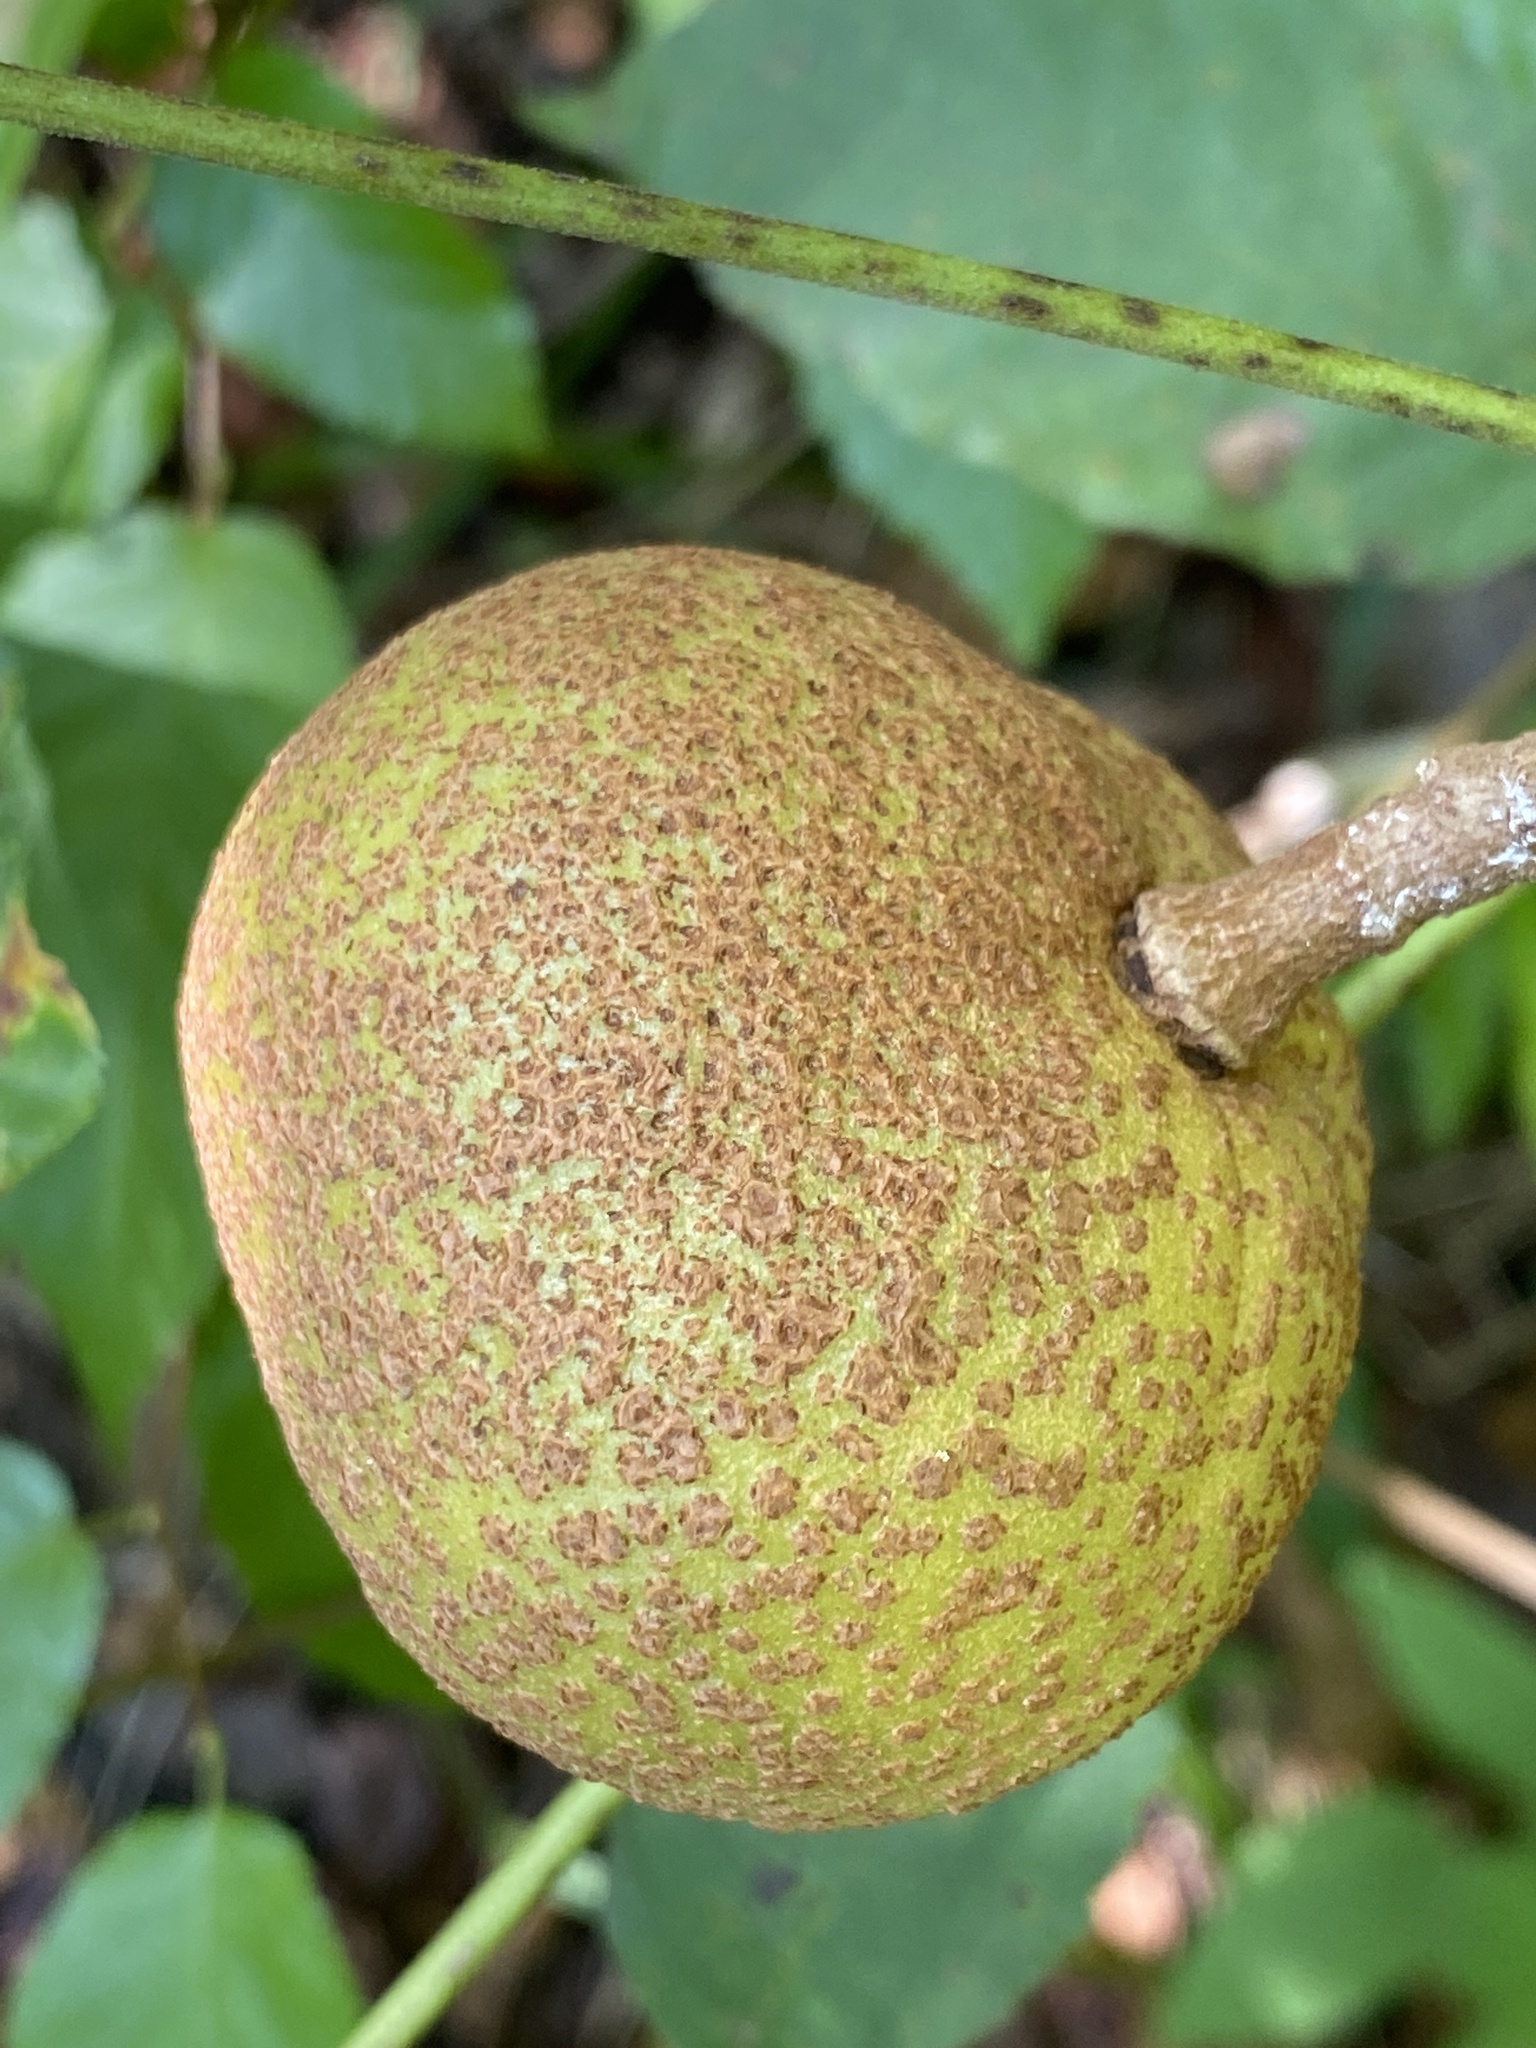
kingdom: Plantae
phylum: Tracheophyta
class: Magnoliopsida
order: Sapindales
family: Sapindaceae
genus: Aesculus
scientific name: Aesculus sylvatica
